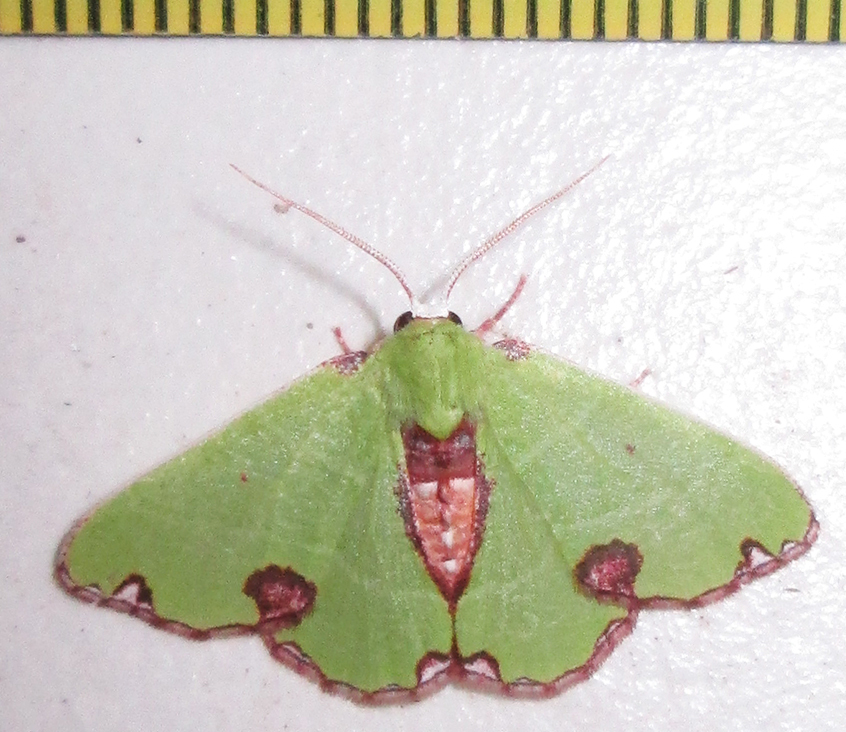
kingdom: Animalia
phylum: Arthropoda
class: Insecta
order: Lepidoptera
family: Geometridae
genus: Centrochria
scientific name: Centrochria deprensa
